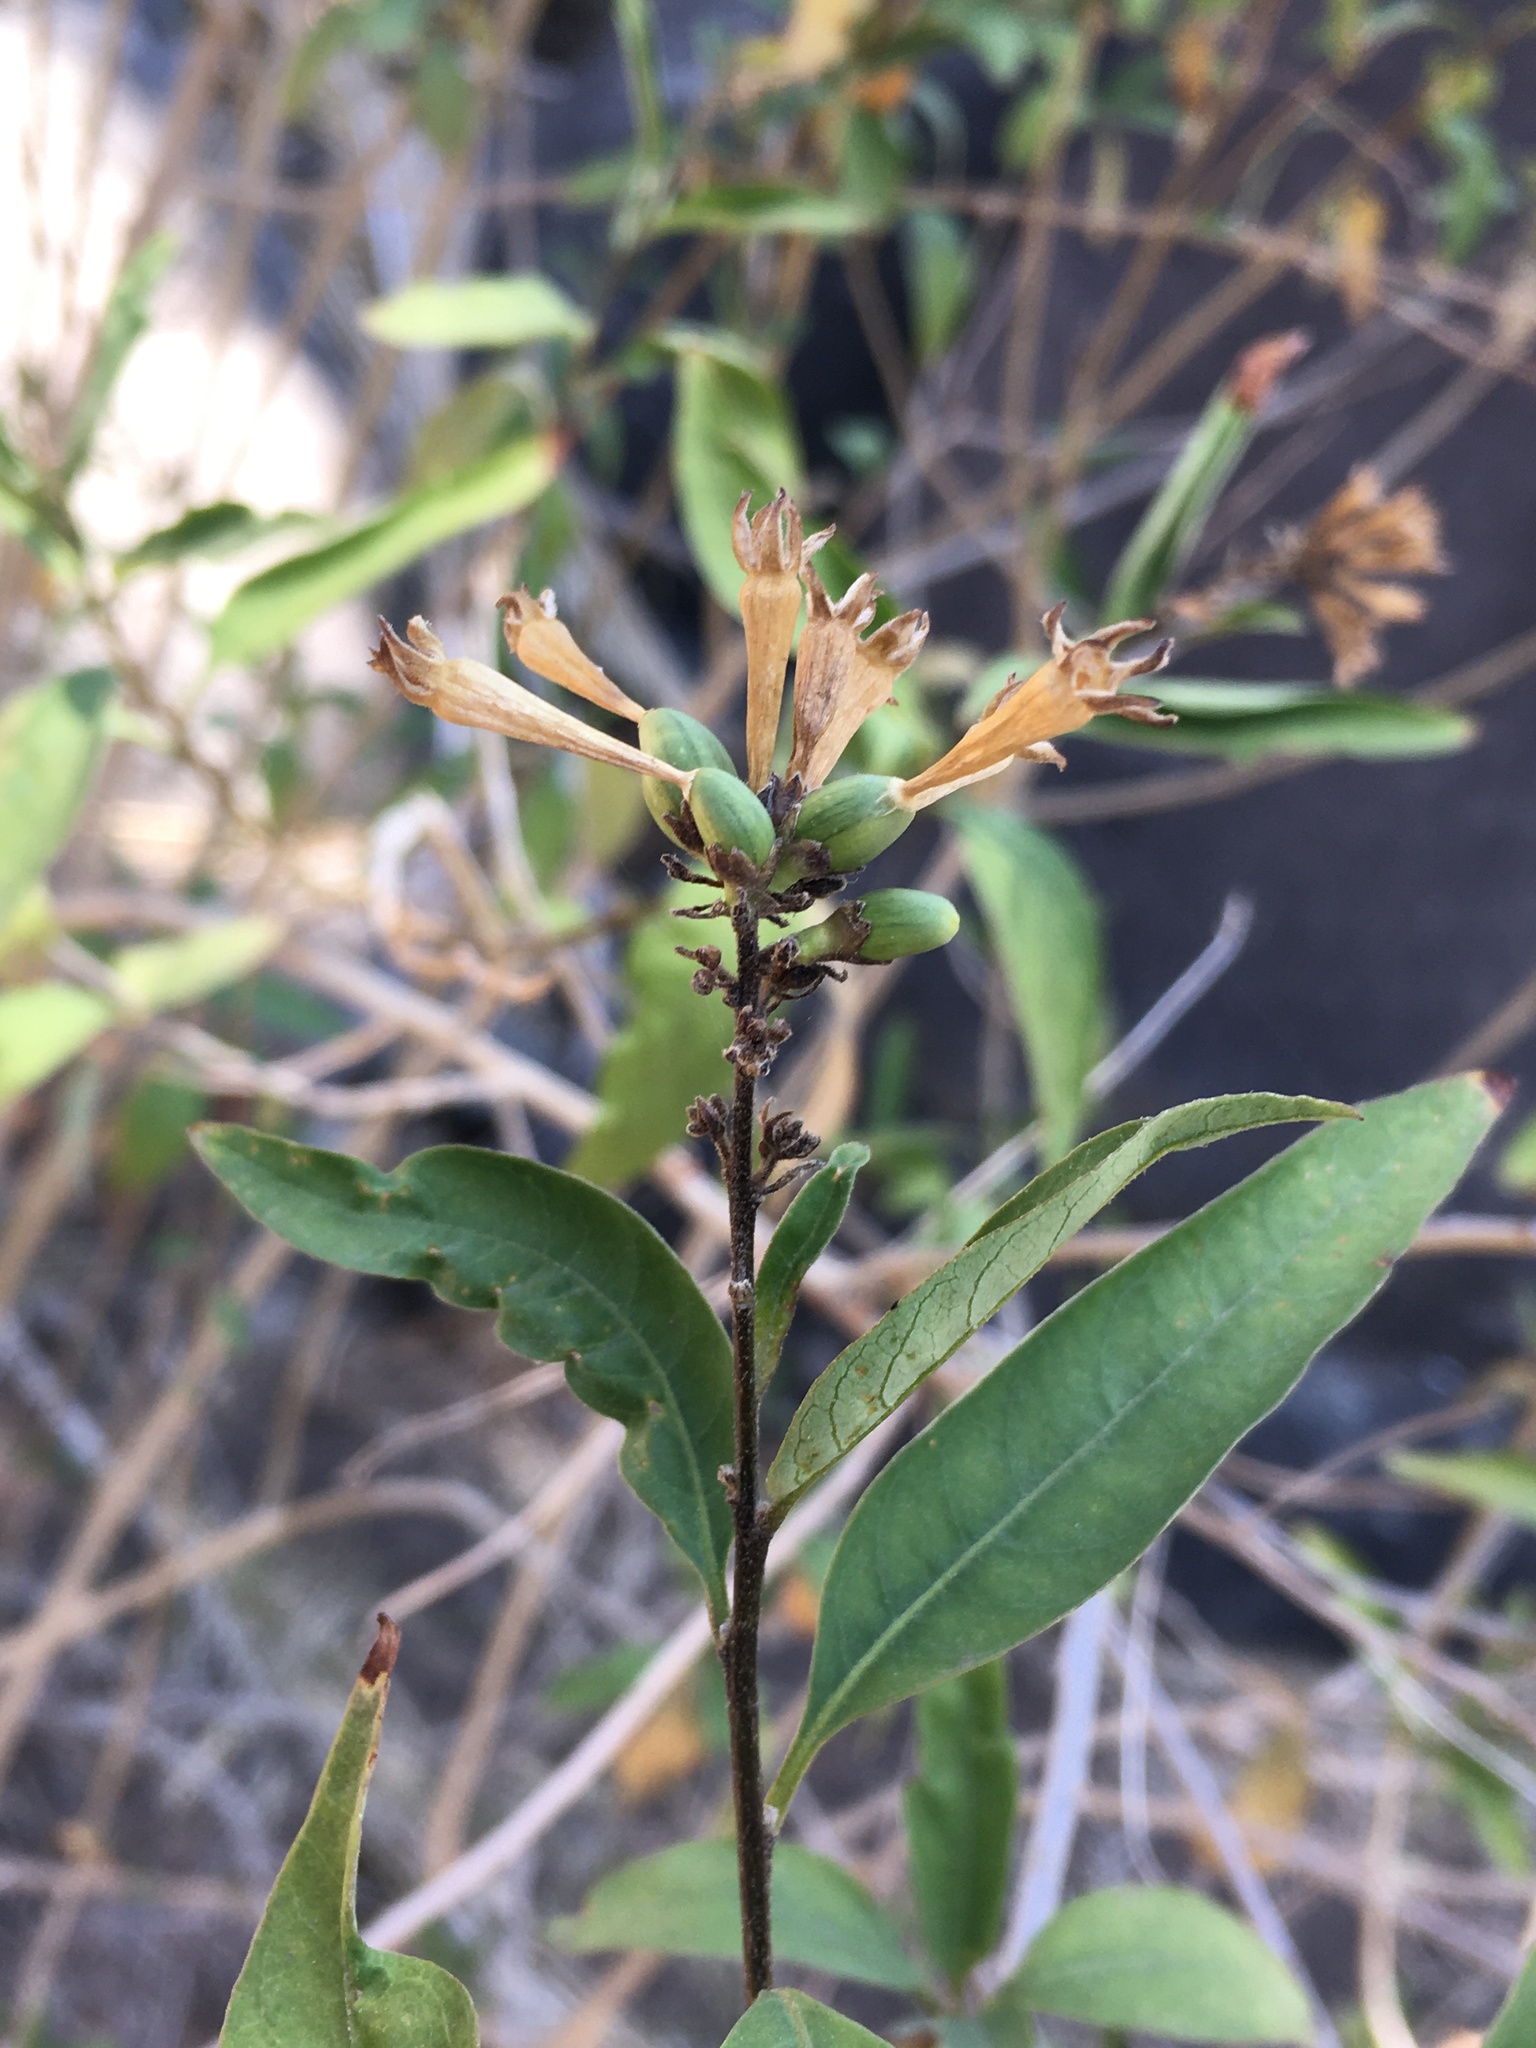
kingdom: Plantae
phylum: Tracheophyta
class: Magnoliopsida
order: Solanales
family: Solanaceae
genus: Cestrum
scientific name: Cestrum parqui
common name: Chilean cestrum
